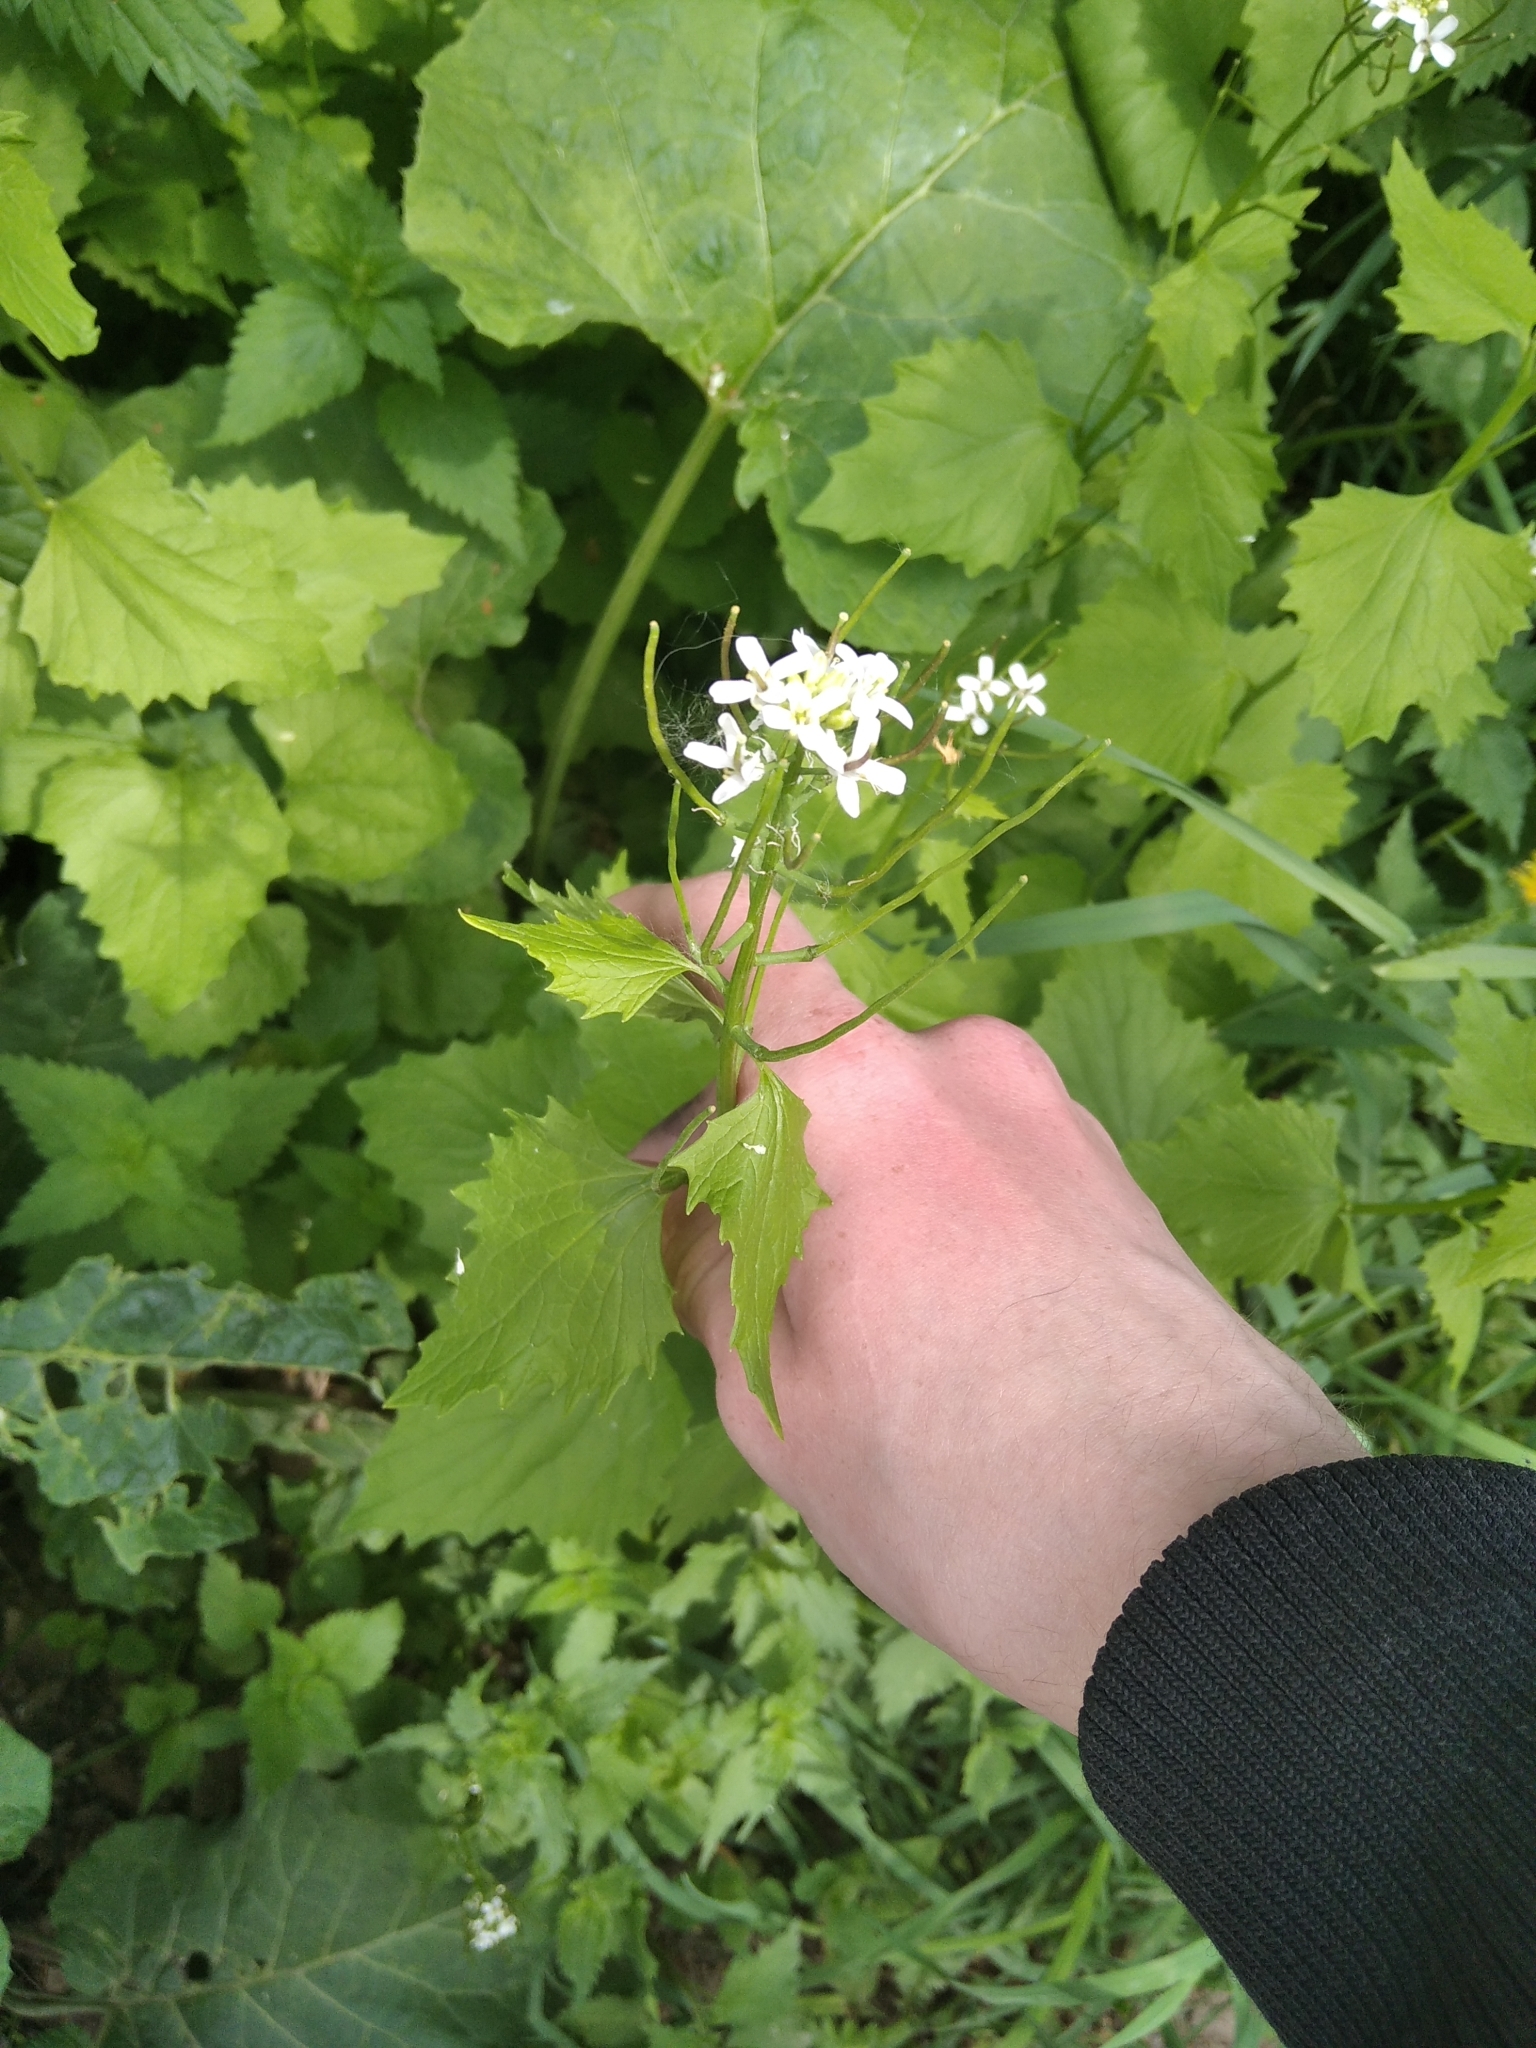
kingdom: Plantae
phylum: Tracheophyta
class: Magnoliopsida
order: Brassicales
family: Brassicaceae
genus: Alliaria
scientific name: Alliaria petiolata
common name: Garlic mustard
